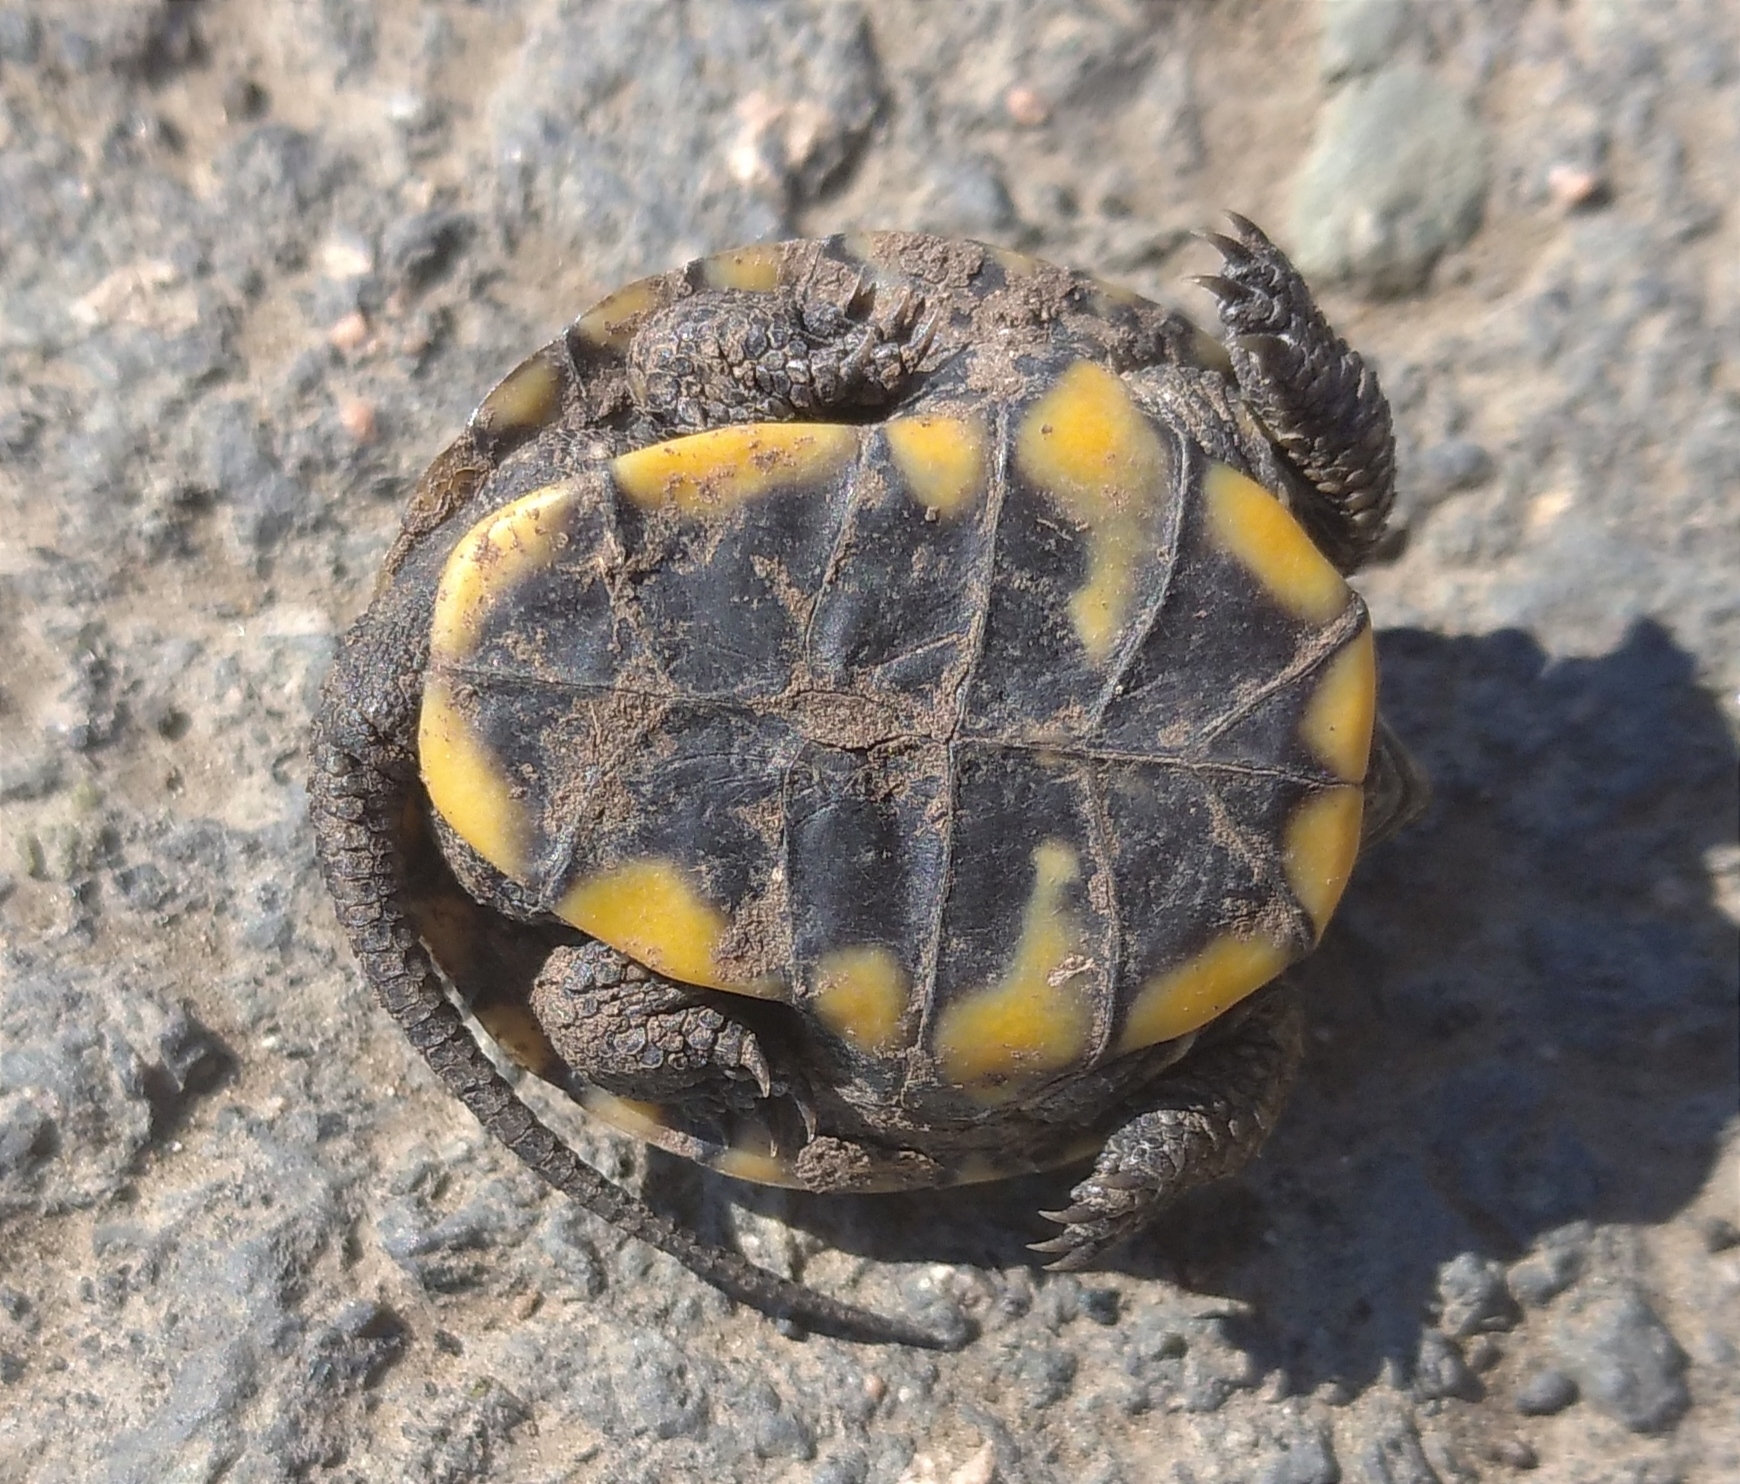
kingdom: Animalia
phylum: Chordata
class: Testudines
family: Emydidae
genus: Emys
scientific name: Emys orbicularis
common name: European pond turtle
